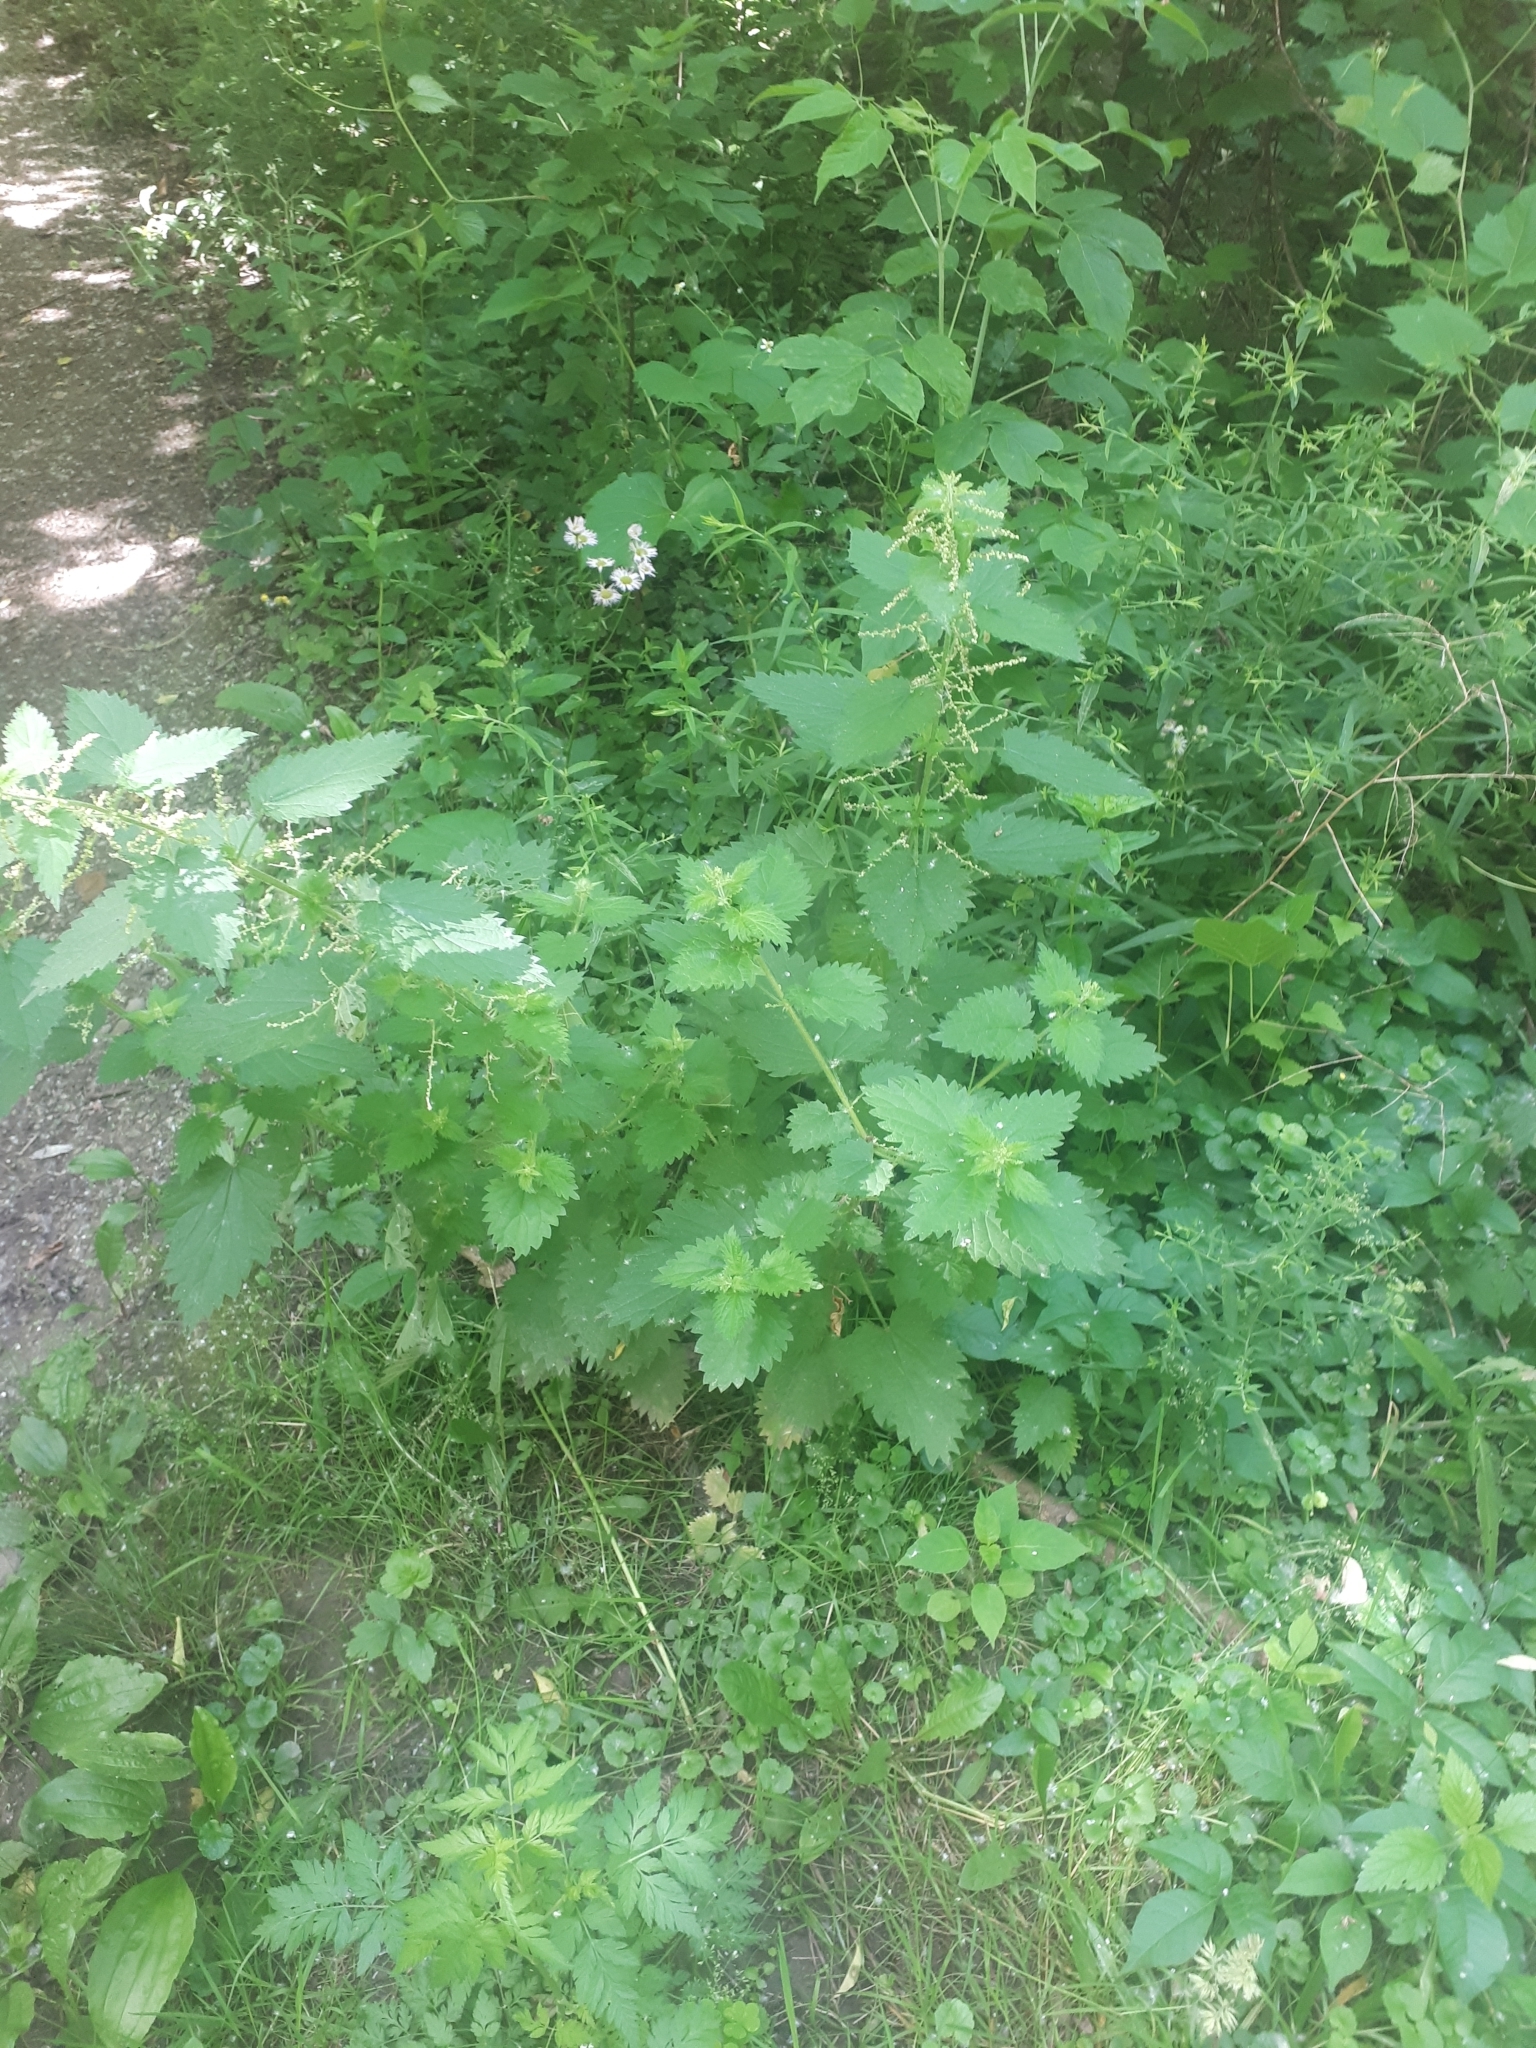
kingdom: Plantae
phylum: Tracheophyta
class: Magnoliopsida
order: Rosales
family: Urticaceae
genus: Urtica
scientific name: Urtica dioica
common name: Common nettle
